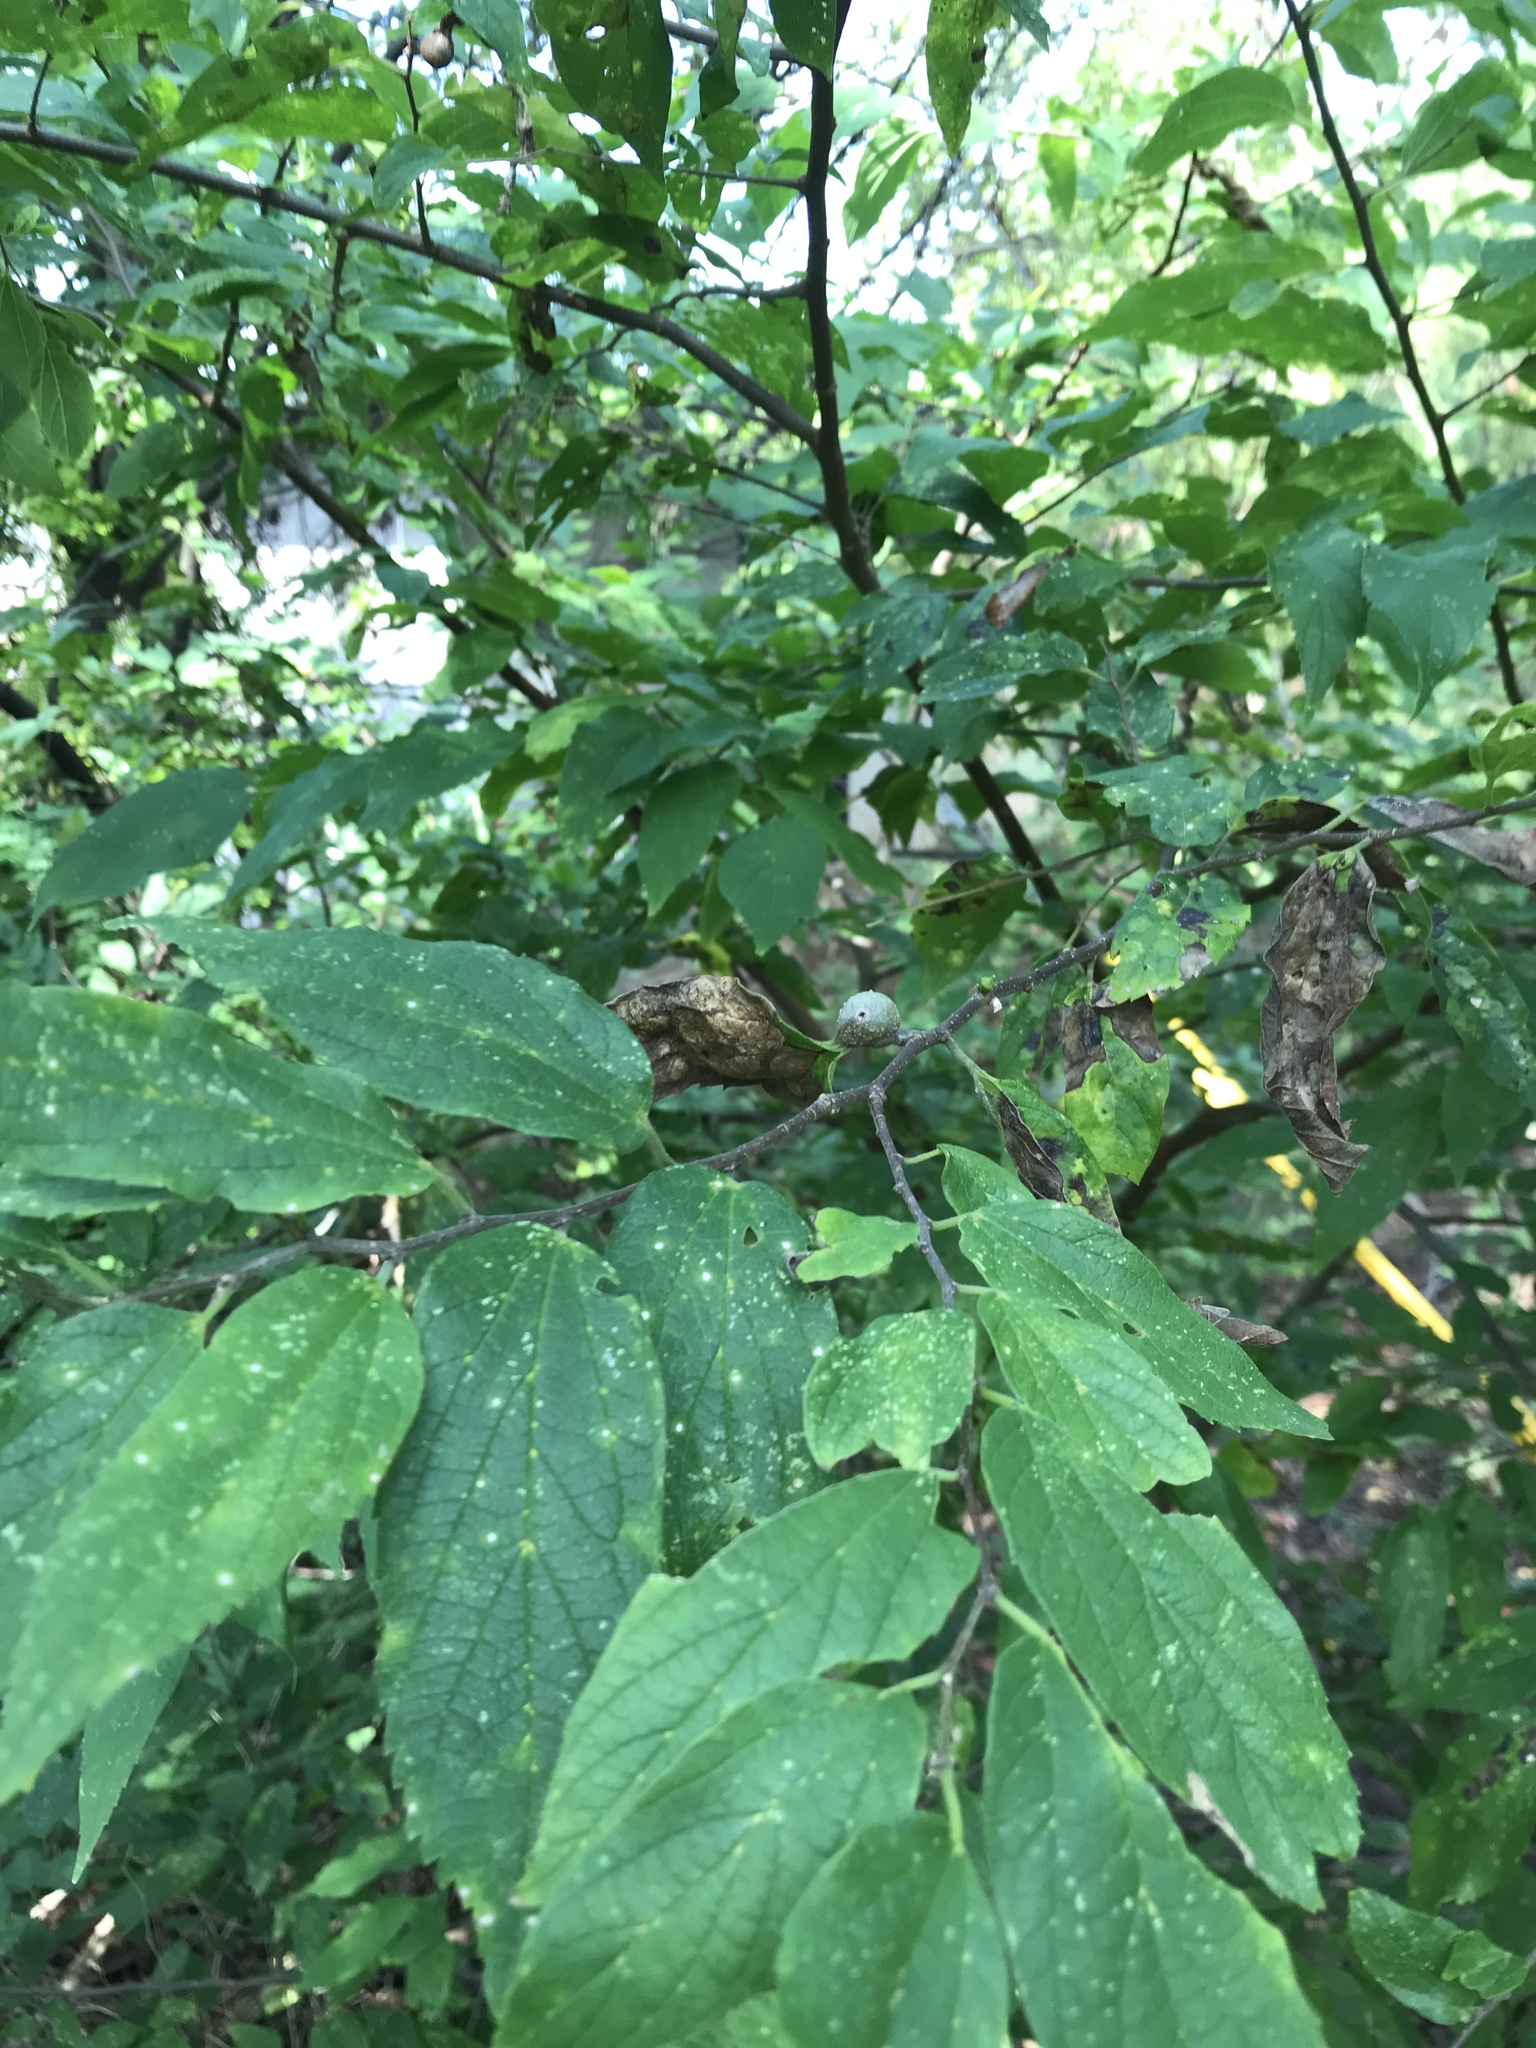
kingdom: Animalia
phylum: Arthropoda
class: Insecta
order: Hemiptera
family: Aphalaridae
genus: Pachypsylla
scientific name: Pachypsylla venusta
